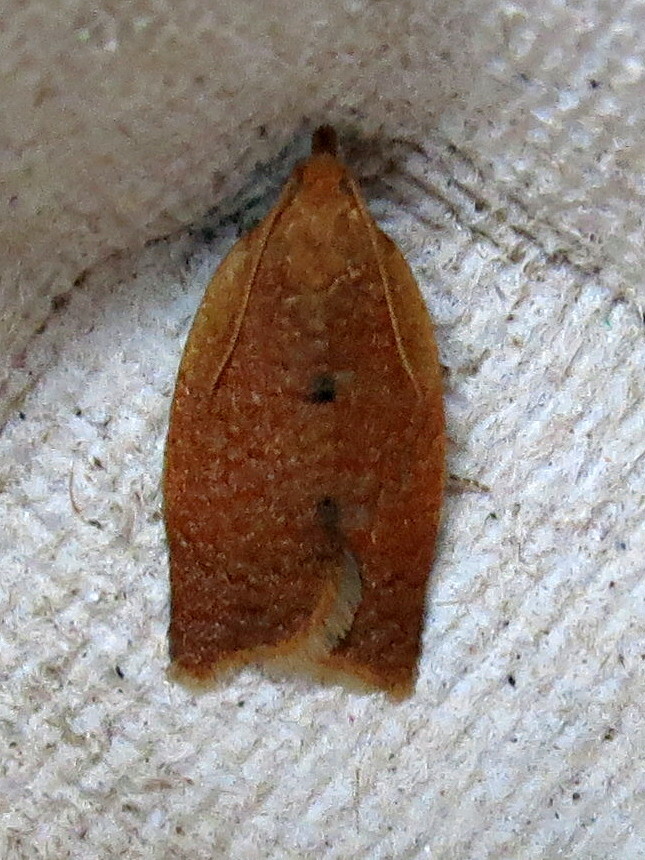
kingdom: Animalia
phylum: Arthropoda
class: Insecta
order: Lepidoptera
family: Tortricidae
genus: Clepsis
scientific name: Clepsis consimilana
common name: Privet tortrix
